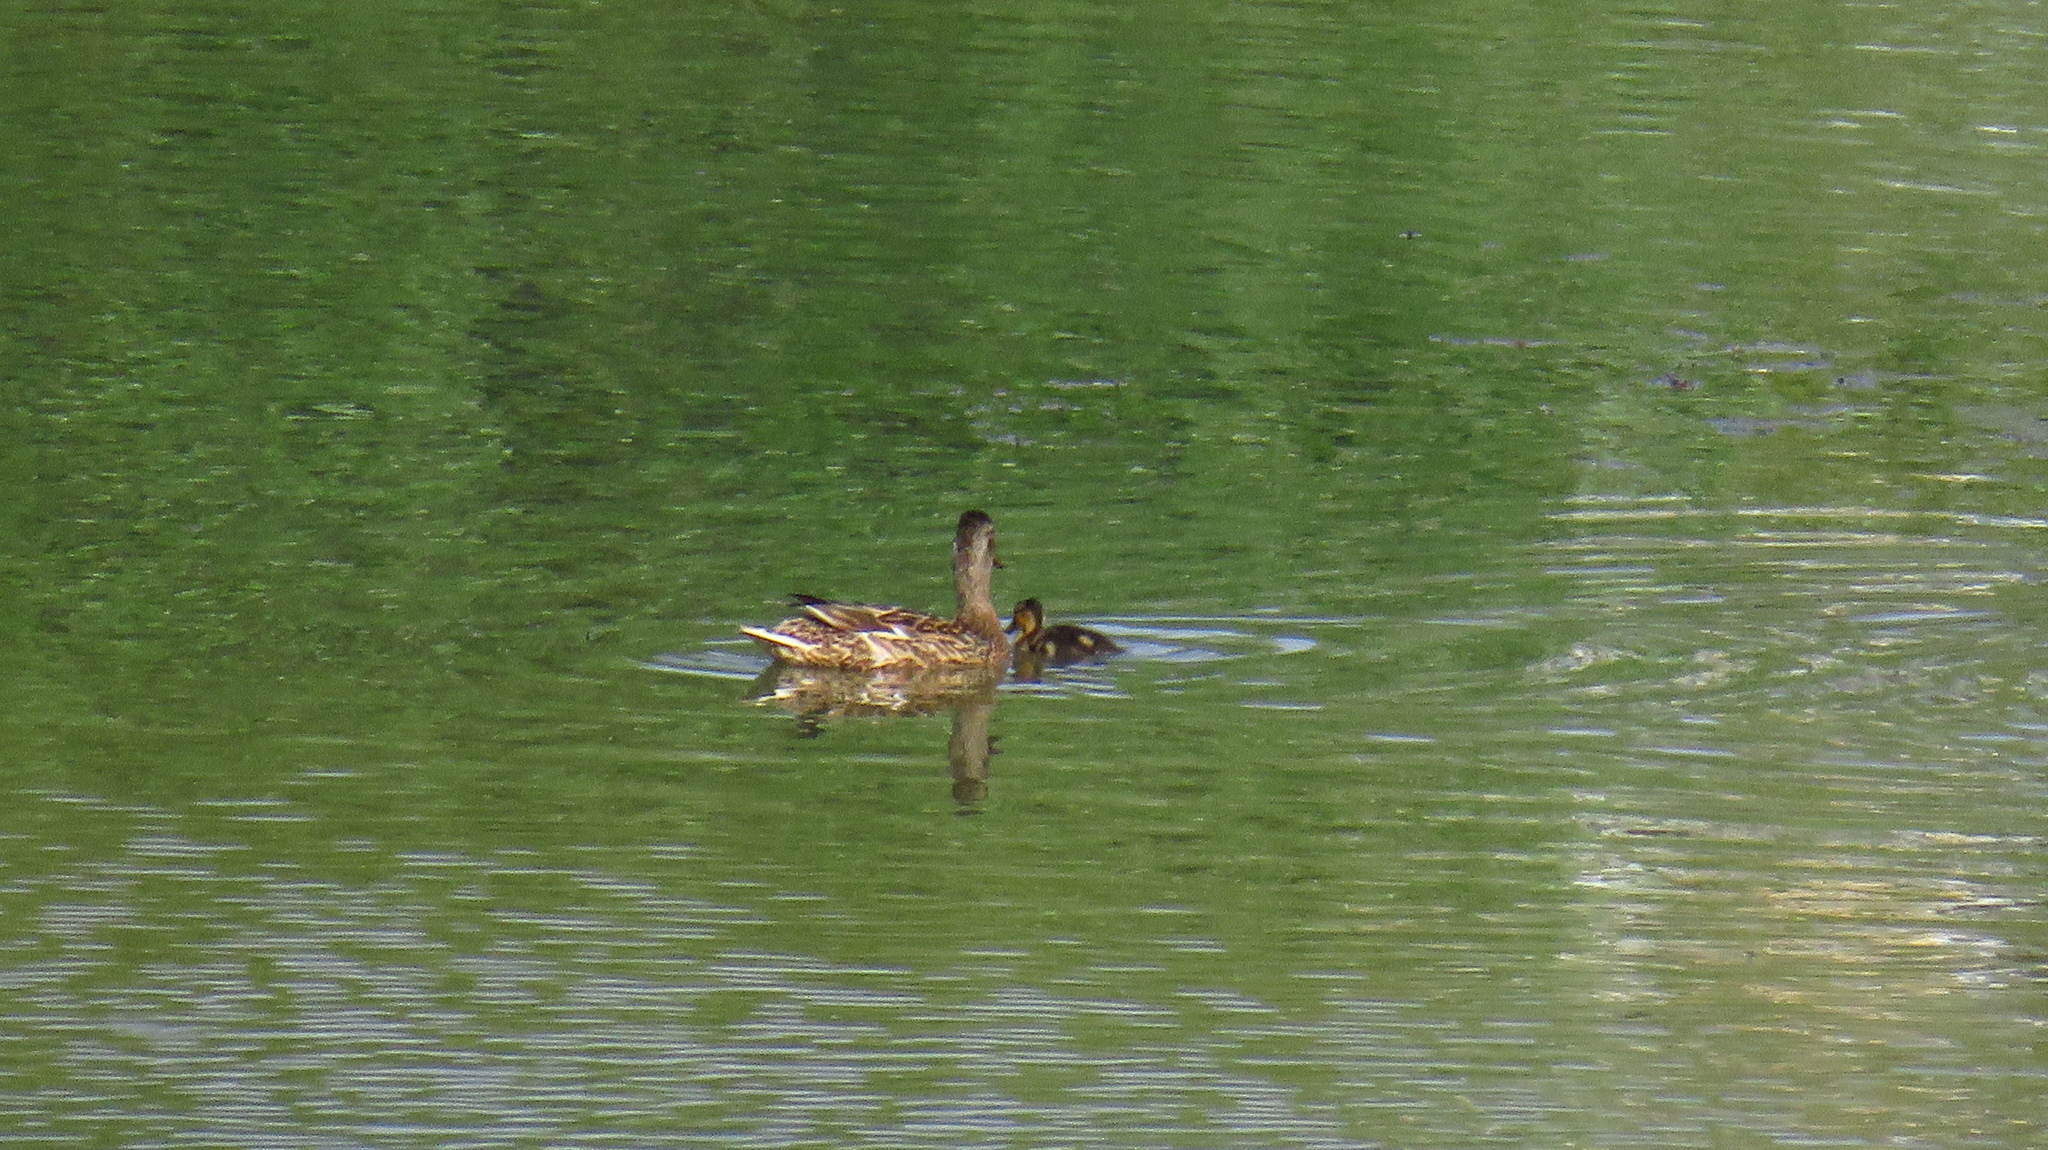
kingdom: Animalia
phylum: Chordata
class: Aves
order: Anseriformes
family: Anatidae
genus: Anas
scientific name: Anas platyrhynchos
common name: Mallard
